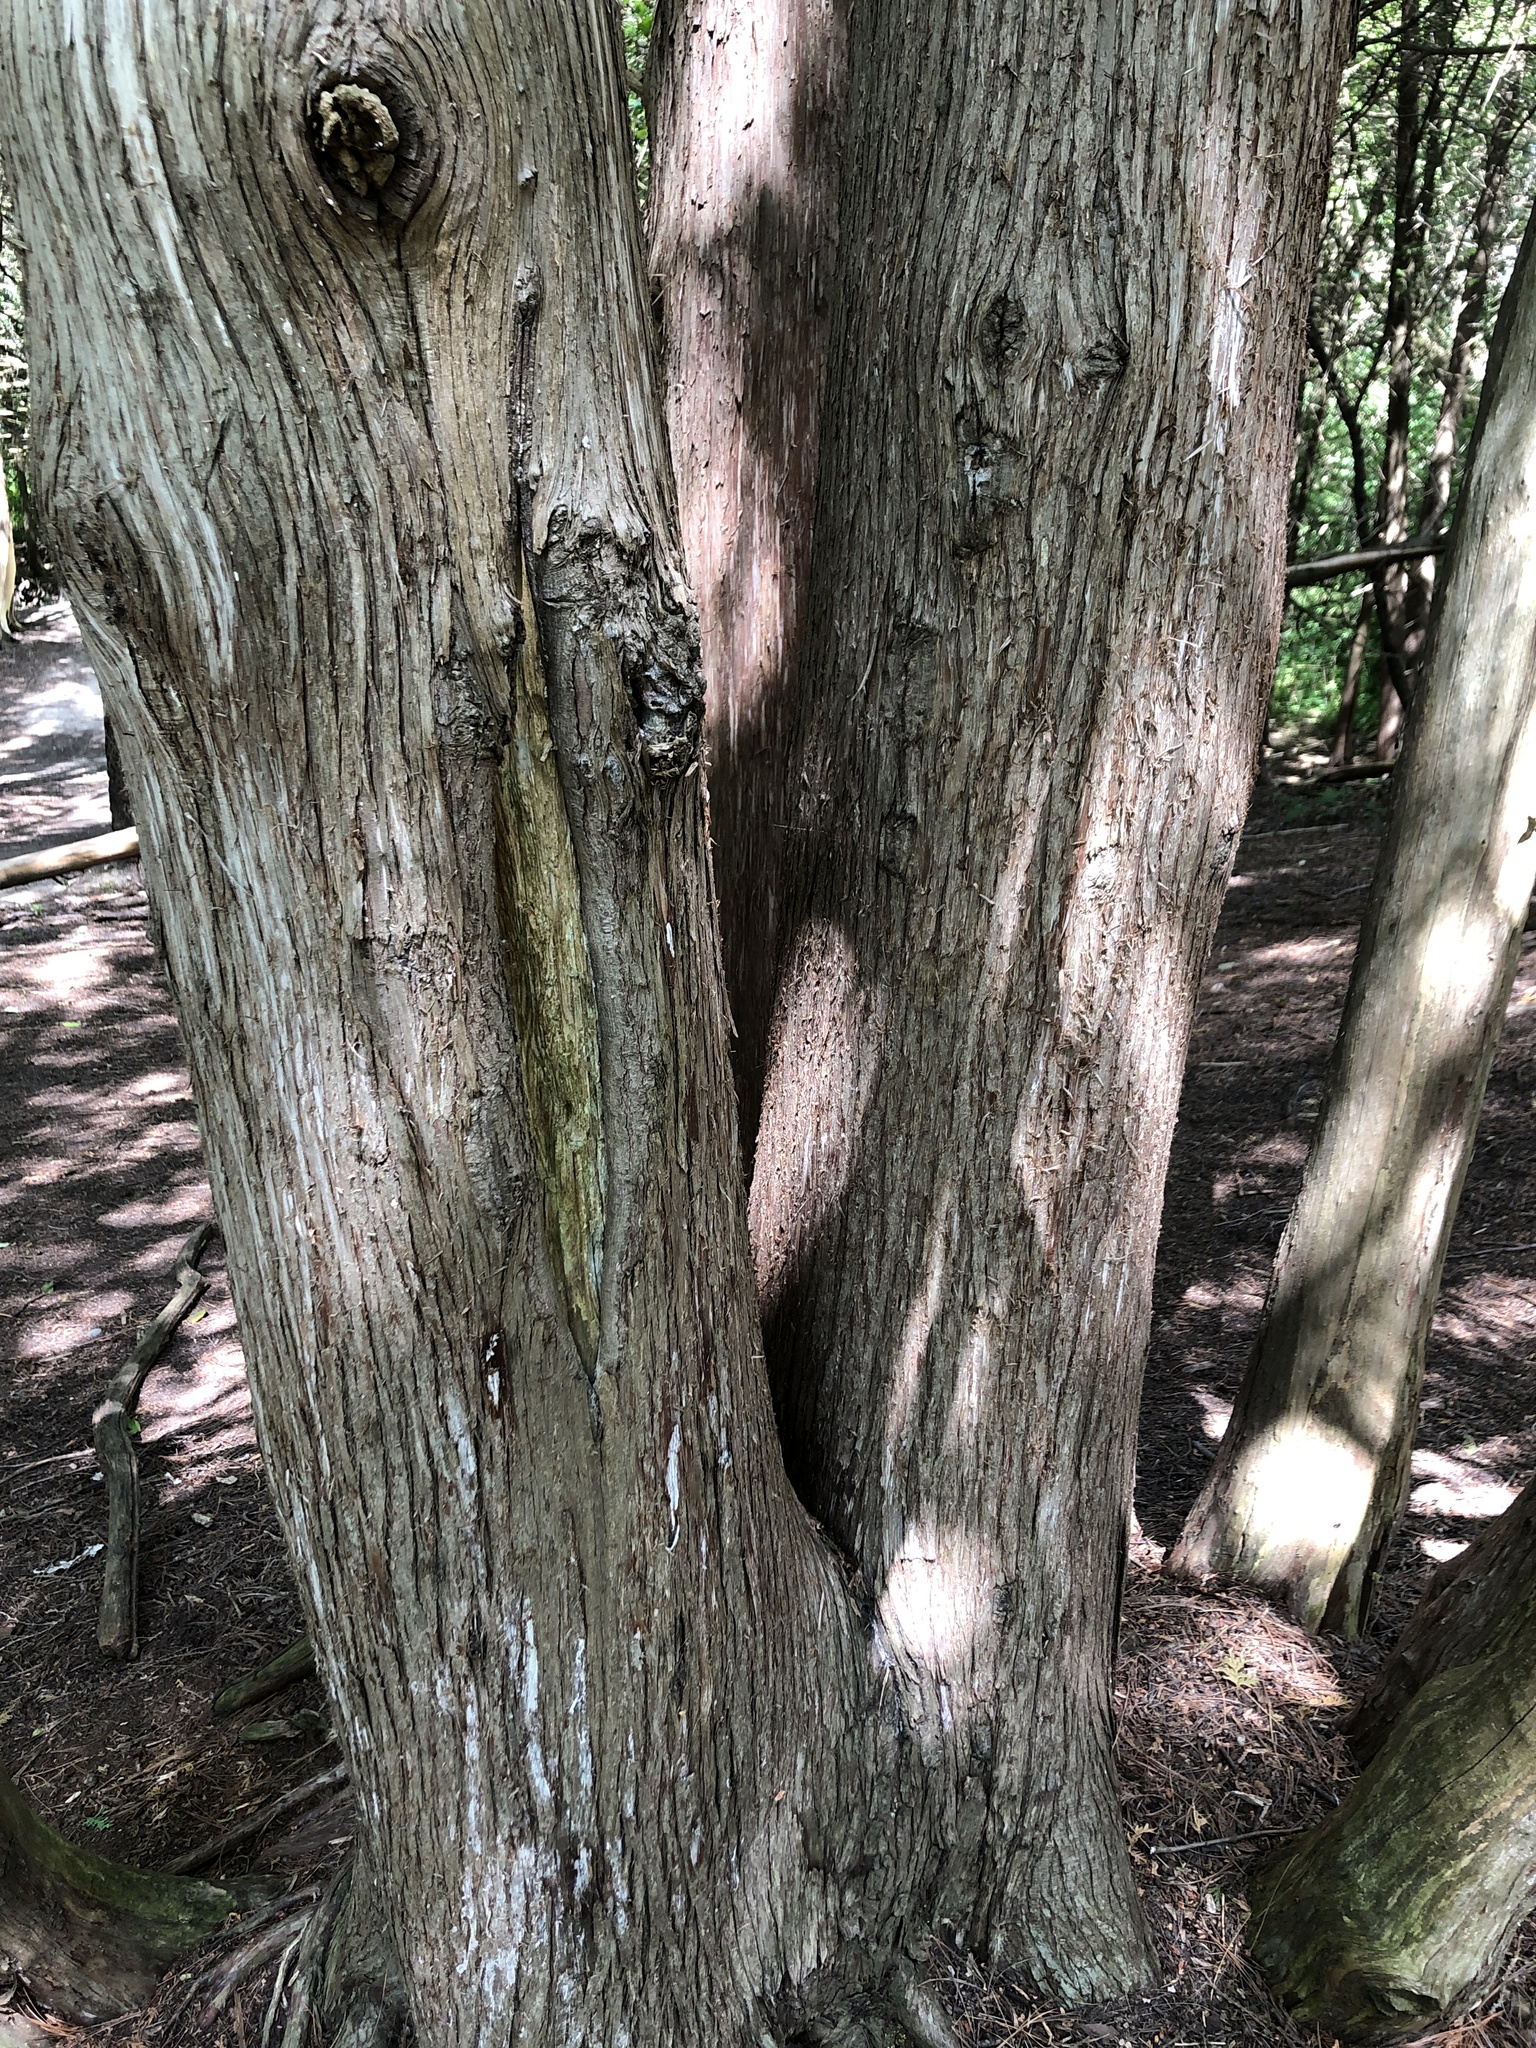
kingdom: Plantae
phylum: Tracheophyta
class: Pinopsida
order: Pinales
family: Cupressaceae
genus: Thuja
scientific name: Thuja occidentalis
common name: Northern white-cedar
